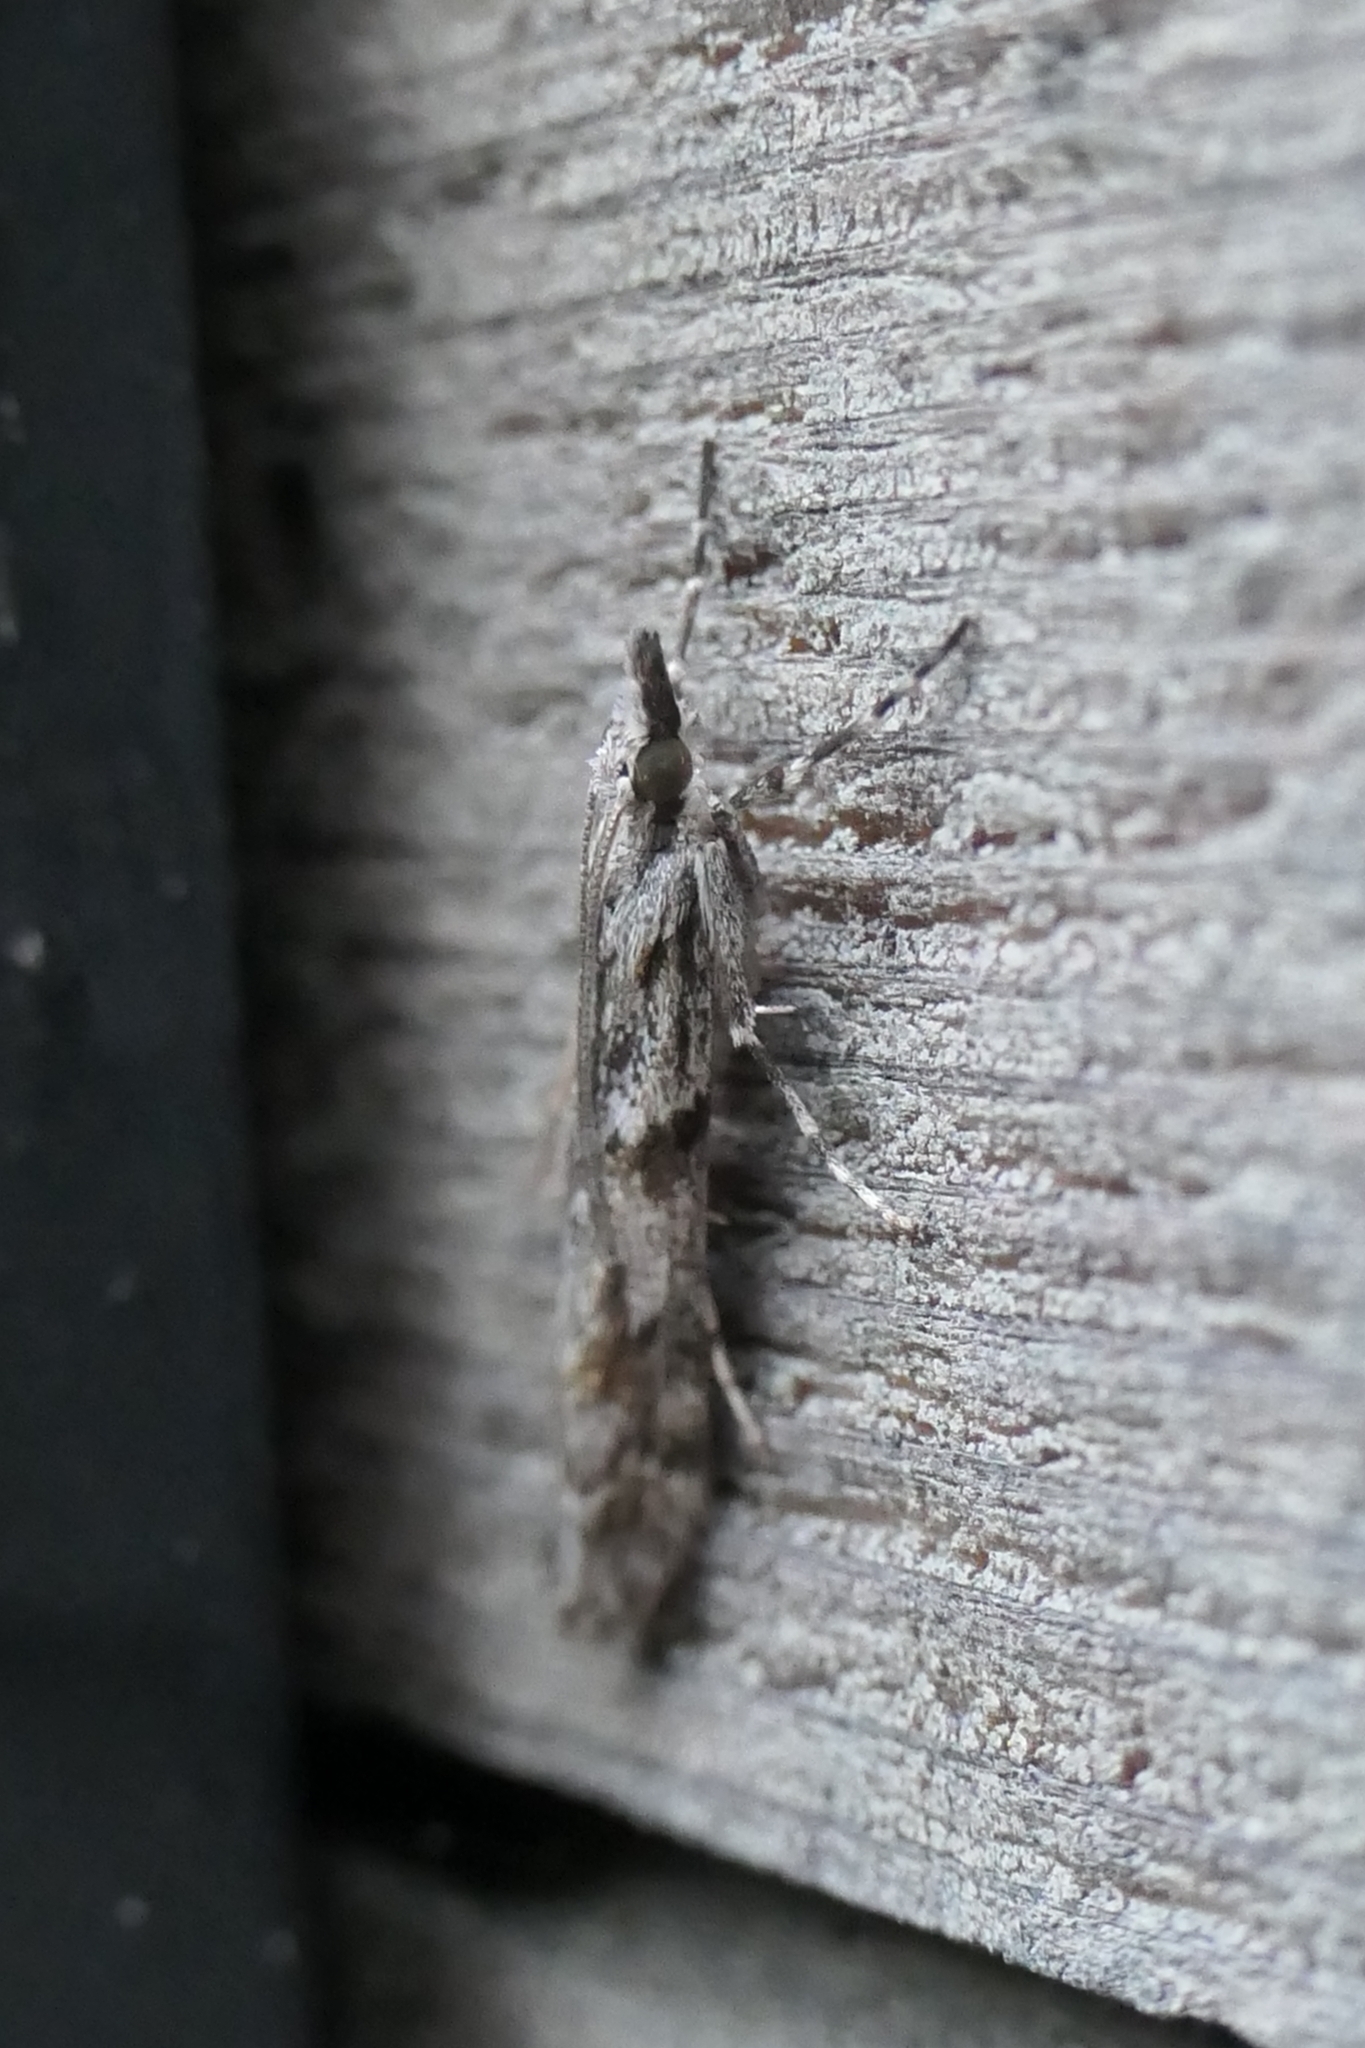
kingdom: Animalia
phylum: Arthropoda
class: Insecta
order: Lepidoptera
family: Crambidae
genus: Scoparia
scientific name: Scoparia halopis
